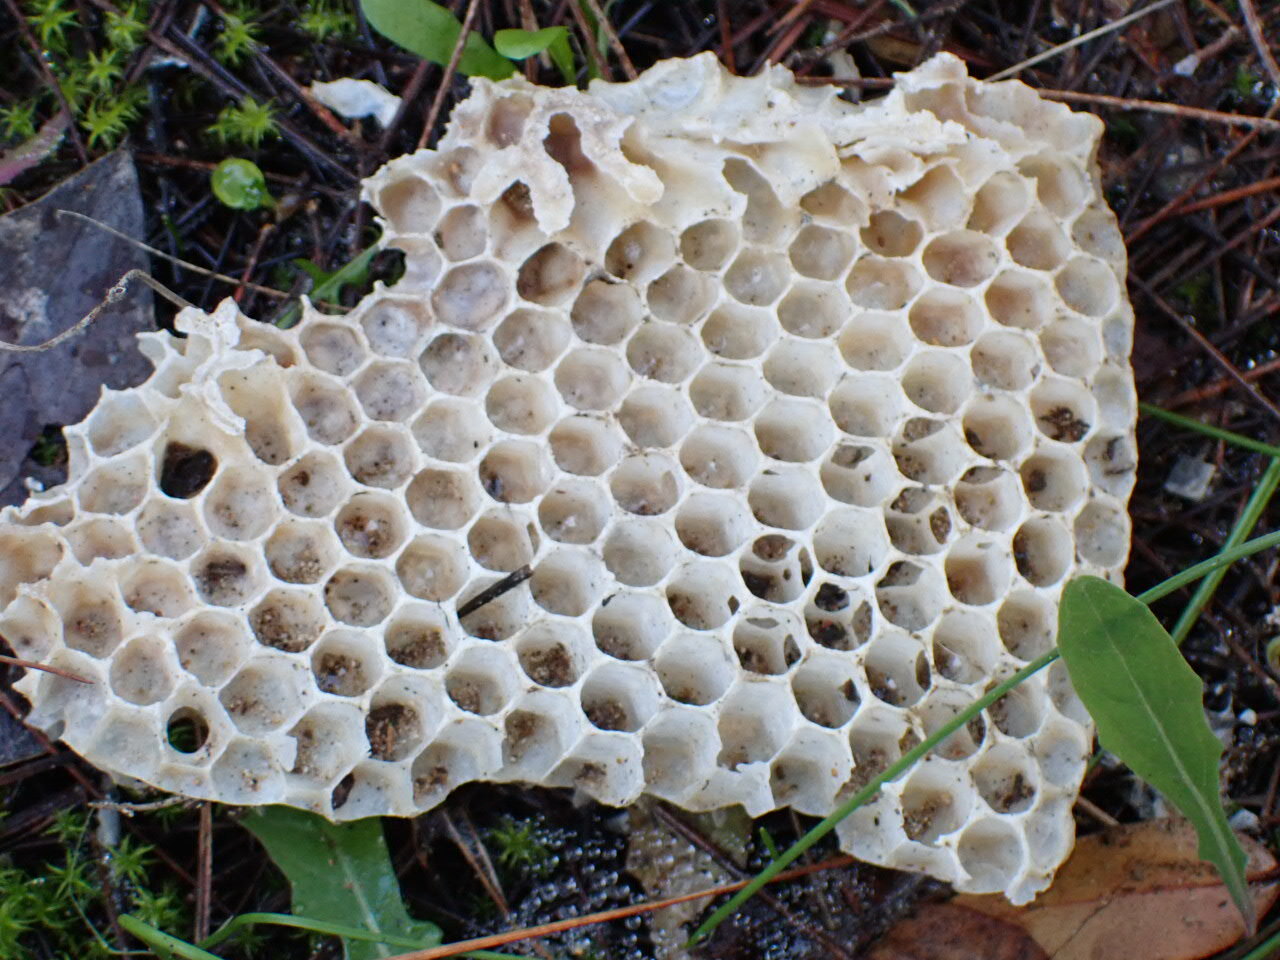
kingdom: Animalia
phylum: Arthropoda
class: Insecta
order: Hymenoptera
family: Apidae
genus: Apis
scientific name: Apis mellifera
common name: Honey bee
